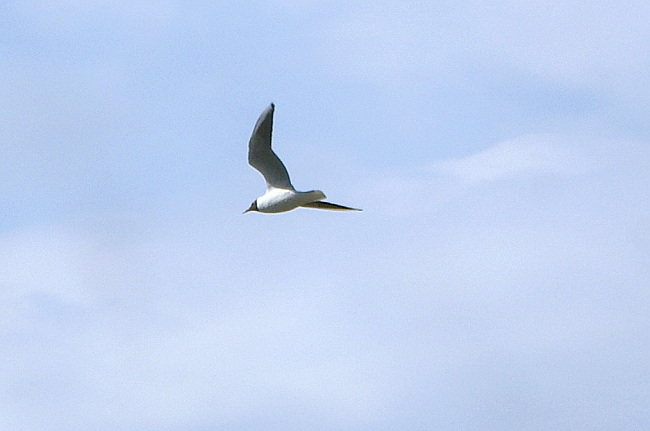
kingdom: Animalia
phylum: Chordata
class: Aves
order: Charadriiformes
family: Laridae
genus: Chroicocephalus
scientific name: Chroicocephalus ridibundus
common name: Black-headed gull
